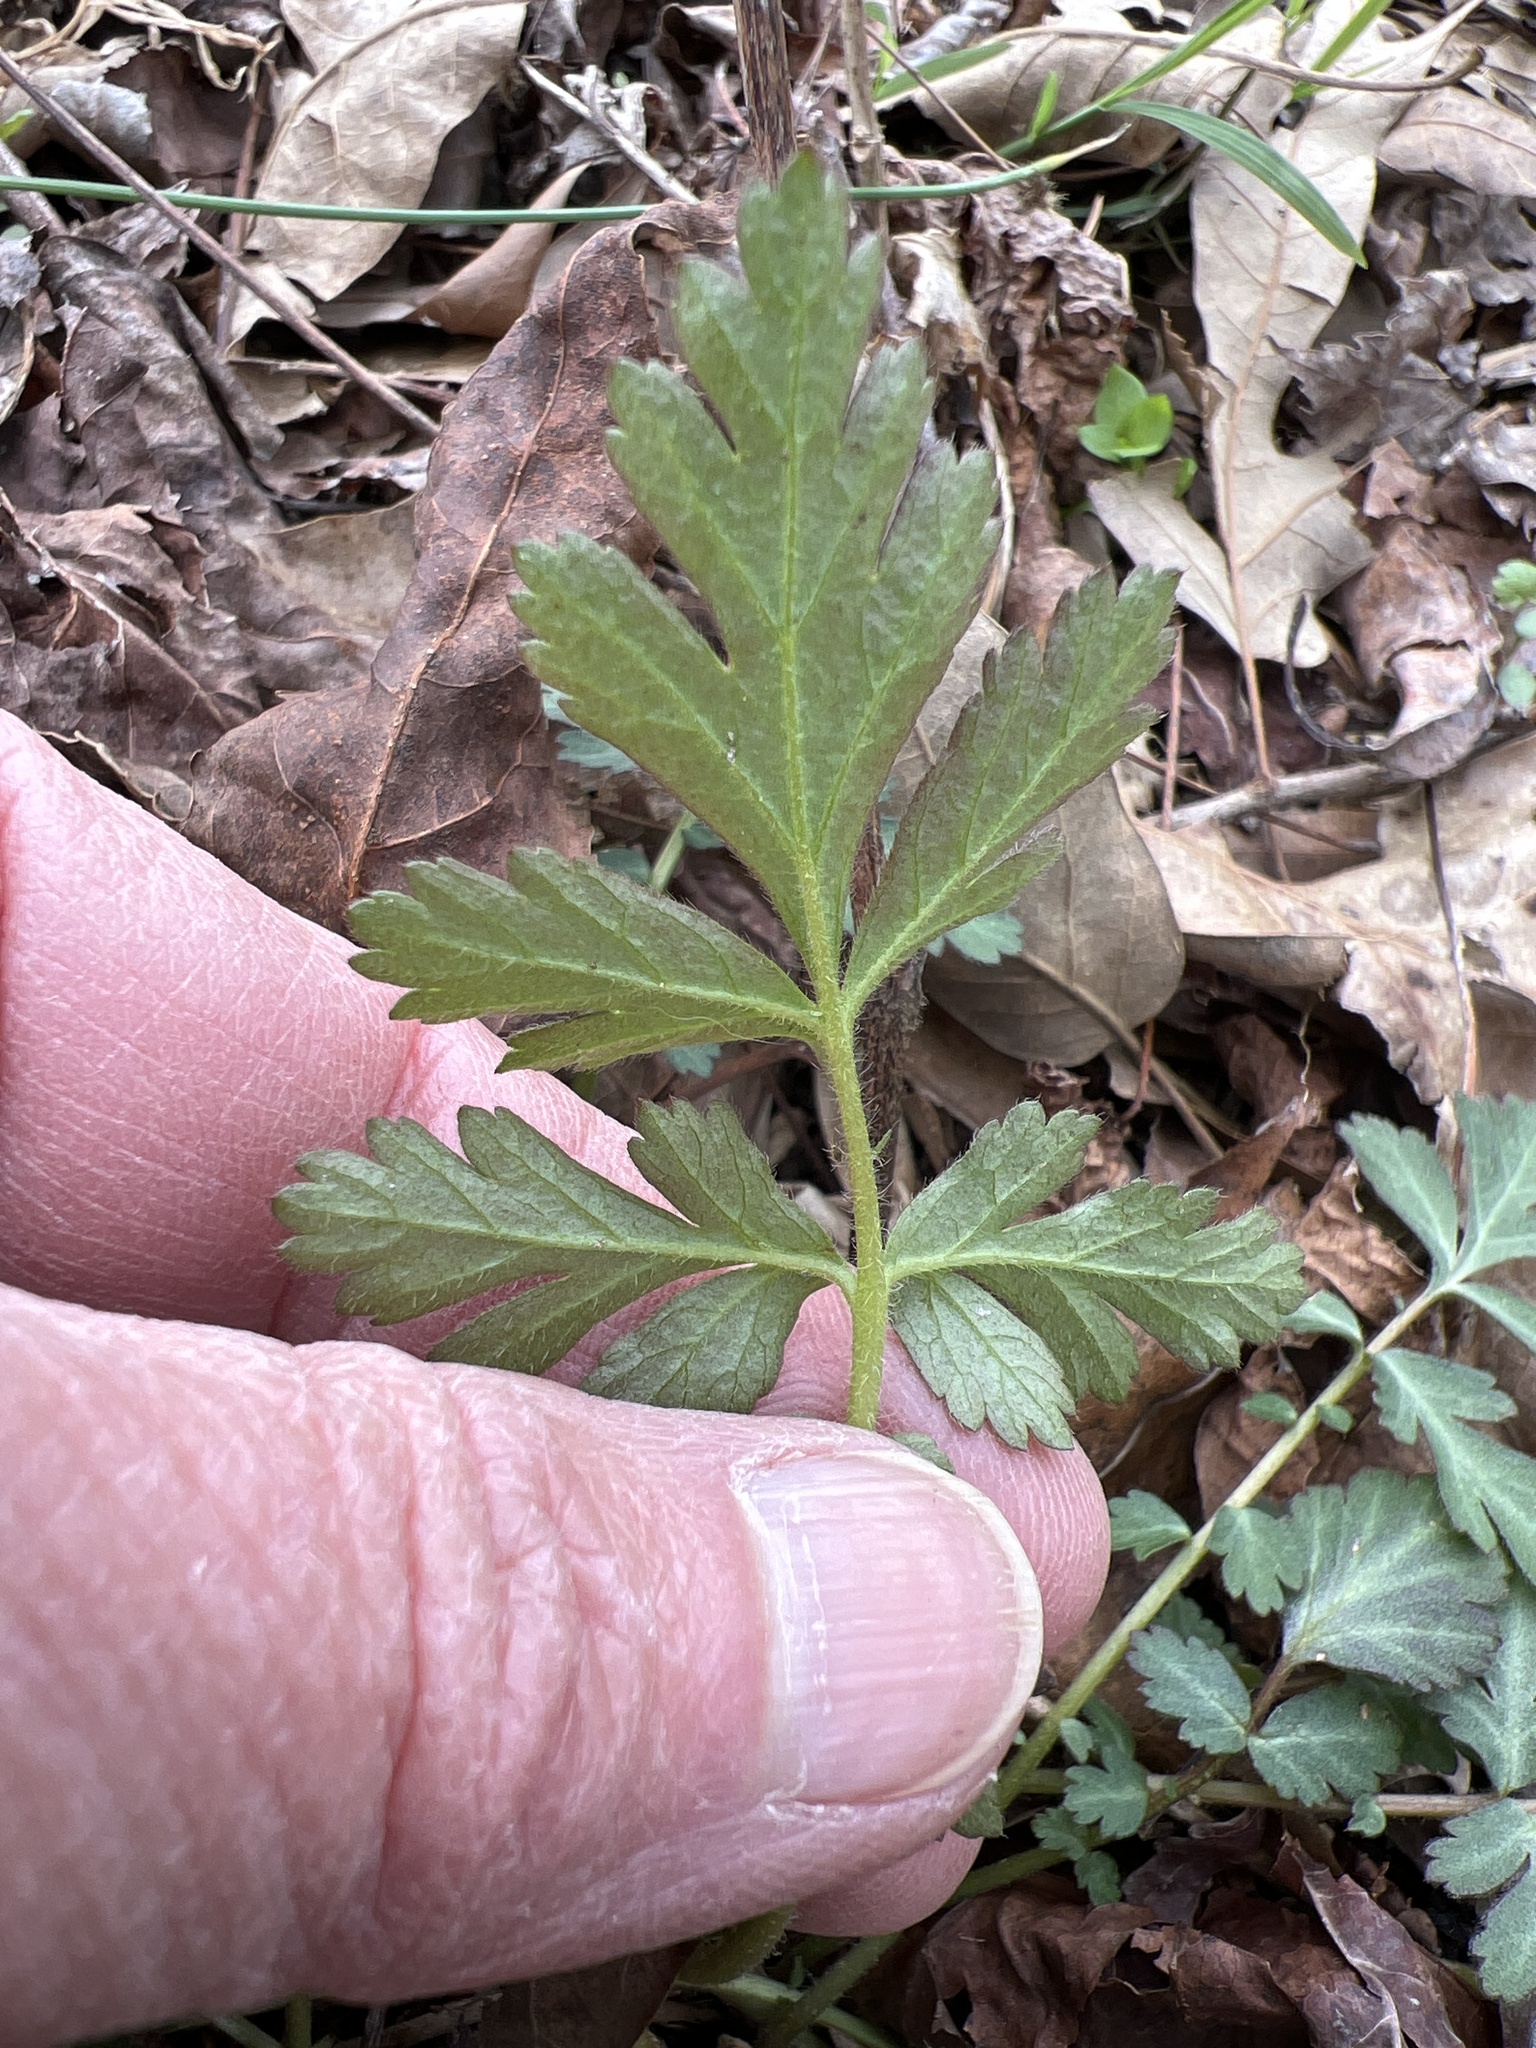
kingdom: Plantae
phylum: Tracheophyta
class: Magnoliopsida
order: Rosales
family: Rosaceae
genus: Geum
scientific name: Geum canadense
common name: White avens
